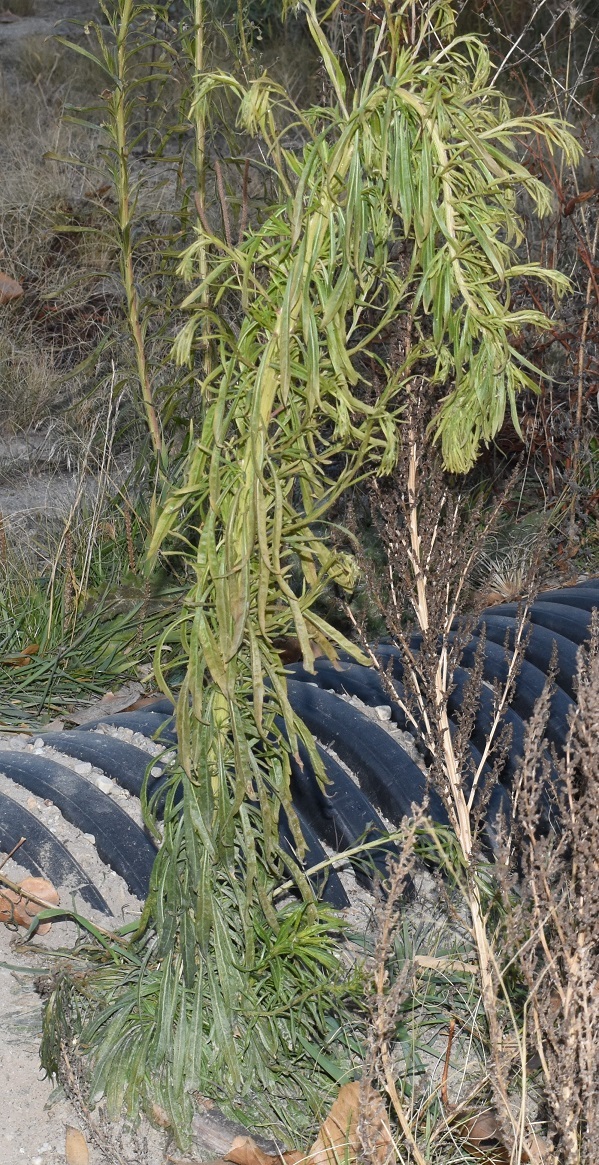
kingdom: Plantae
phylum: Tracheophyta
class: Magnoliopsida
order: Asterales
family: Asteraceae
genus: Erigeron
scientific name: Erigeron canadensis
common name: Canadian fleabane
